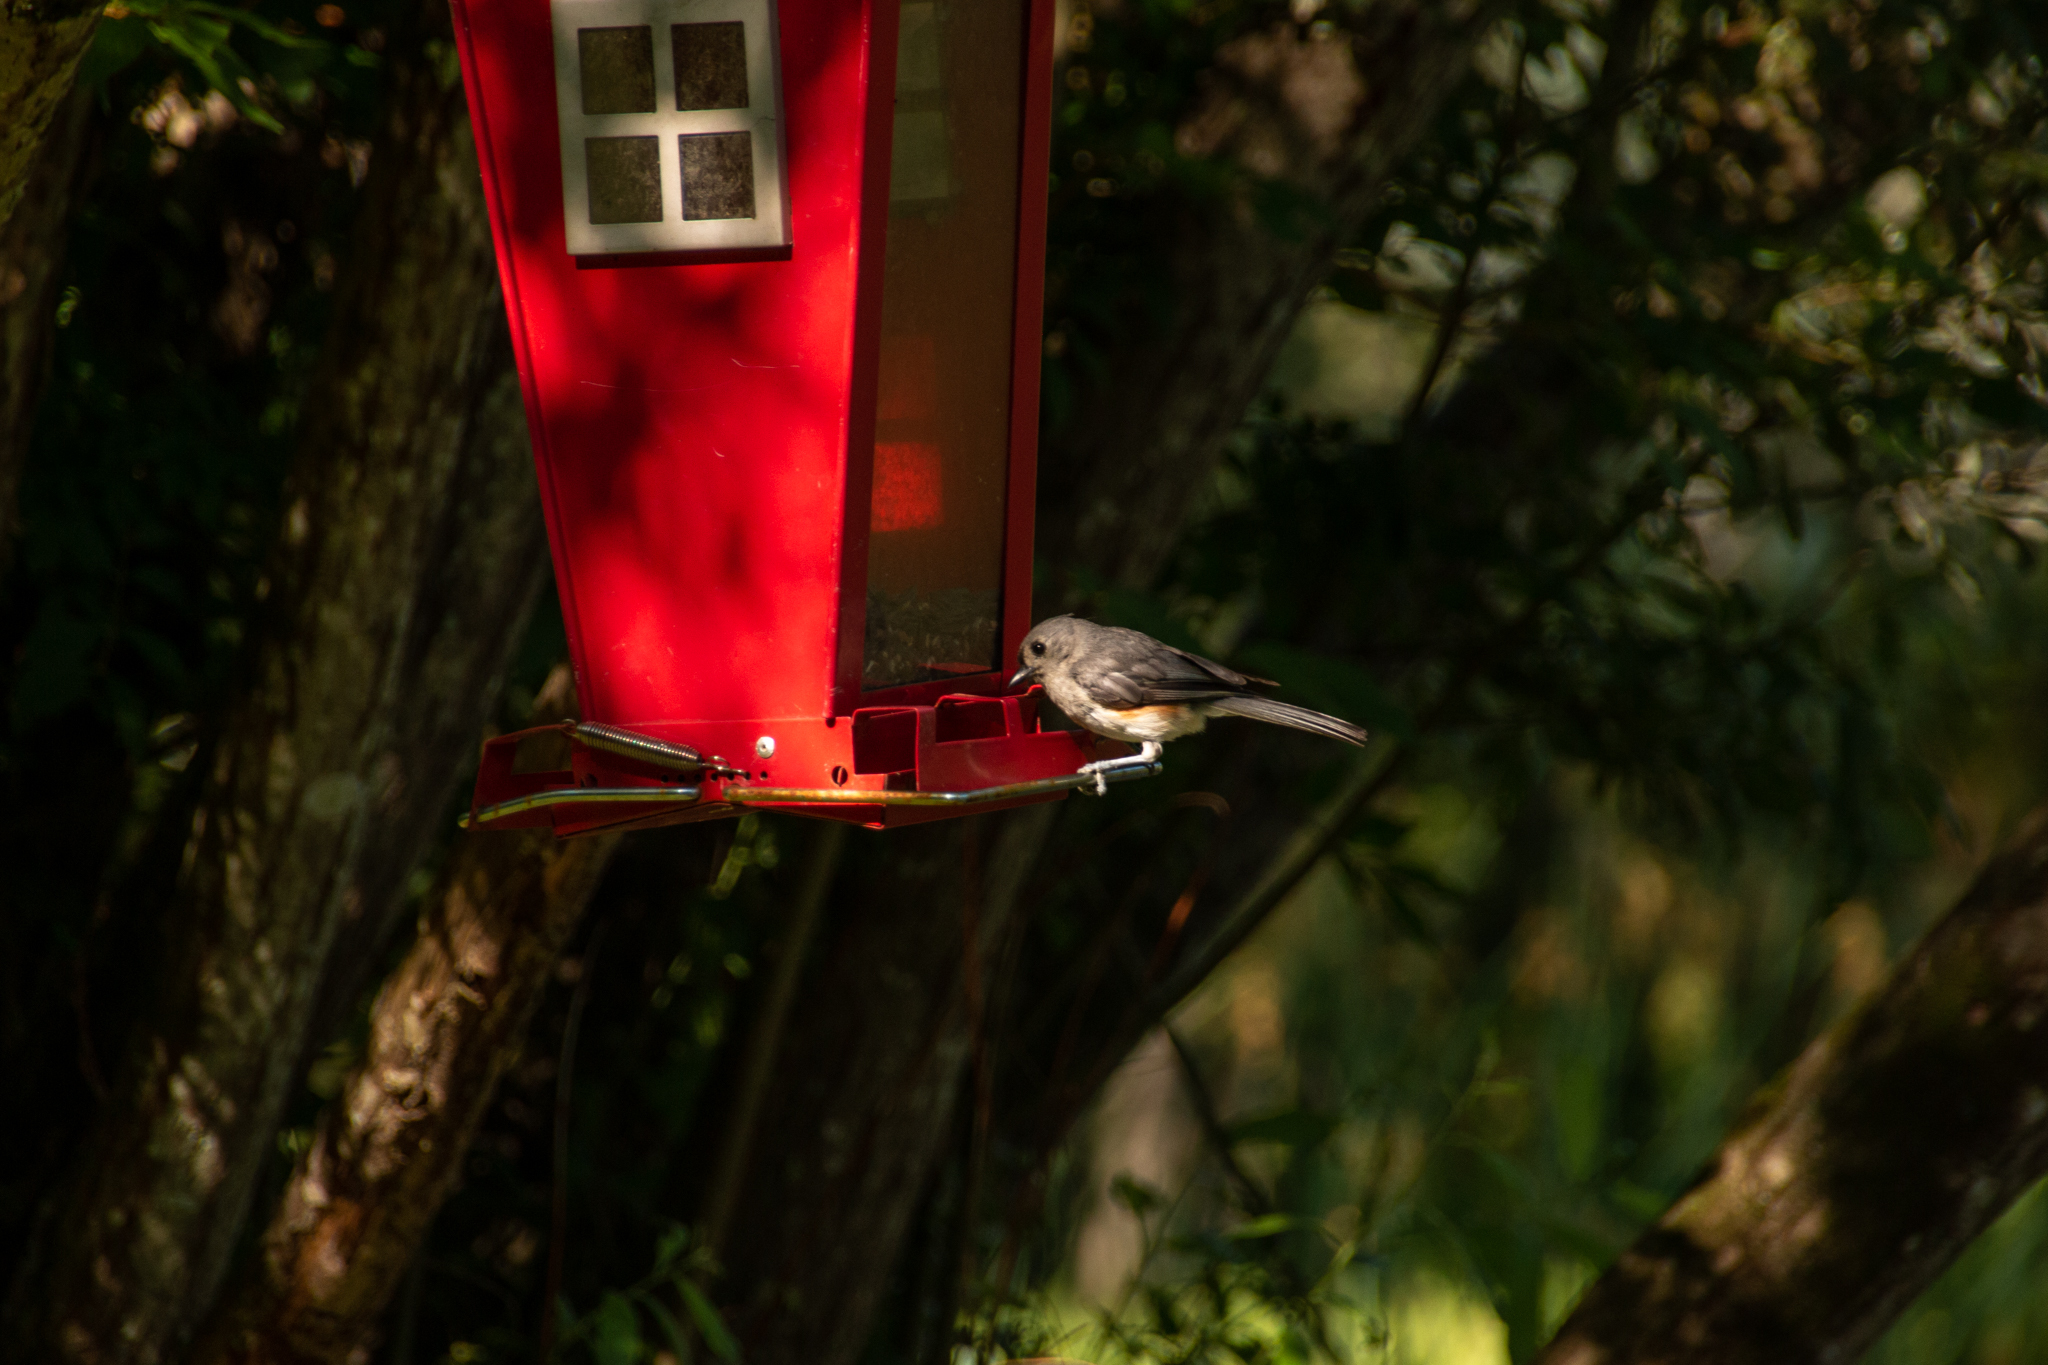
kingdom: Animalia
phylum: Chordata
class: Aves
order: Passeriformes
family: Paridae
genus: Baeolophus
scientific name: Baeolophus bicolor
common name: Tufted titmouse
